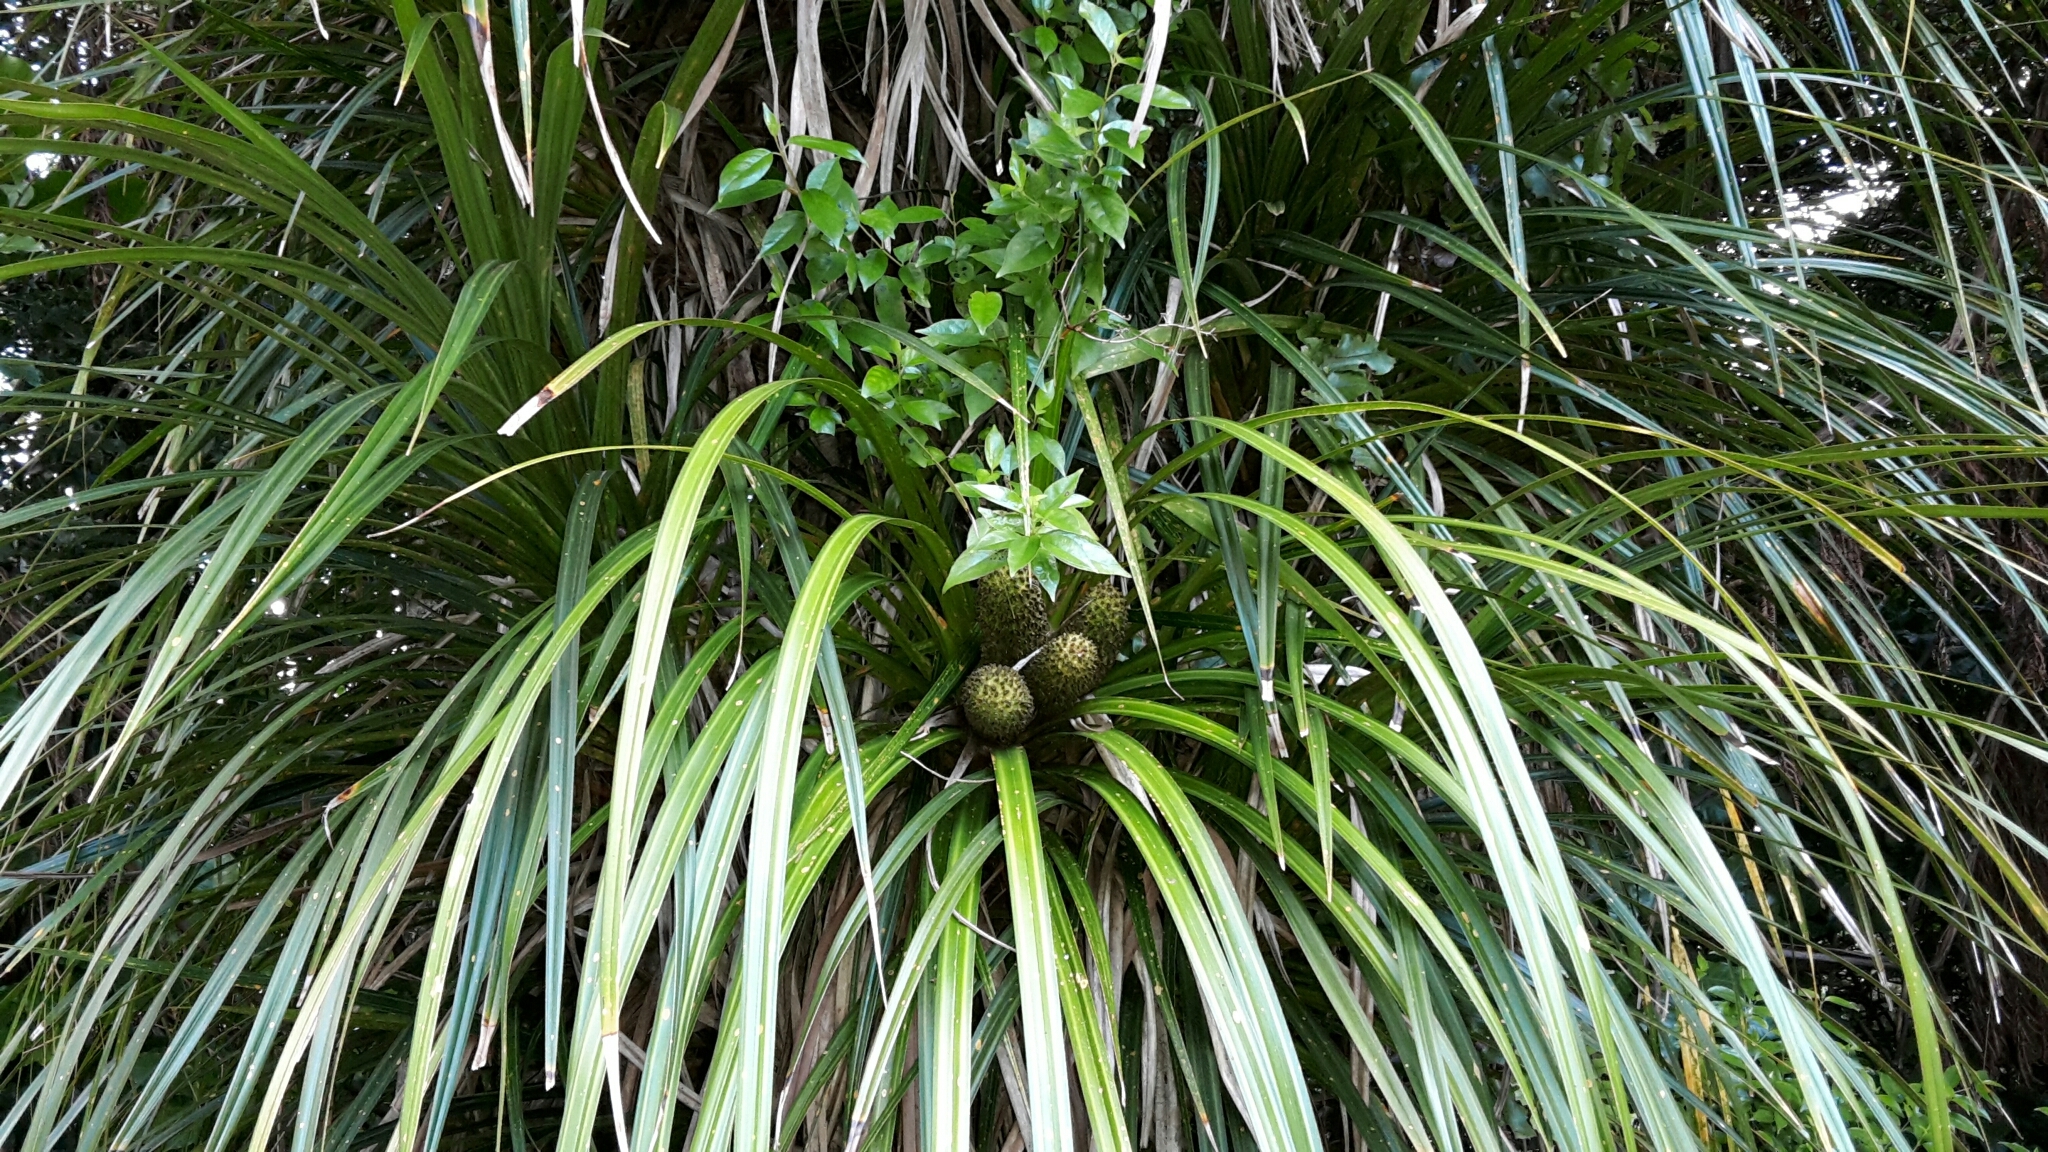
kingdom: Plantae
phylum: Tracheophyta
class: Liliopsida
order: Pandanales
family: Pandanaceae
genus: Freycinetia
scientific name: Freycinetia banksii
